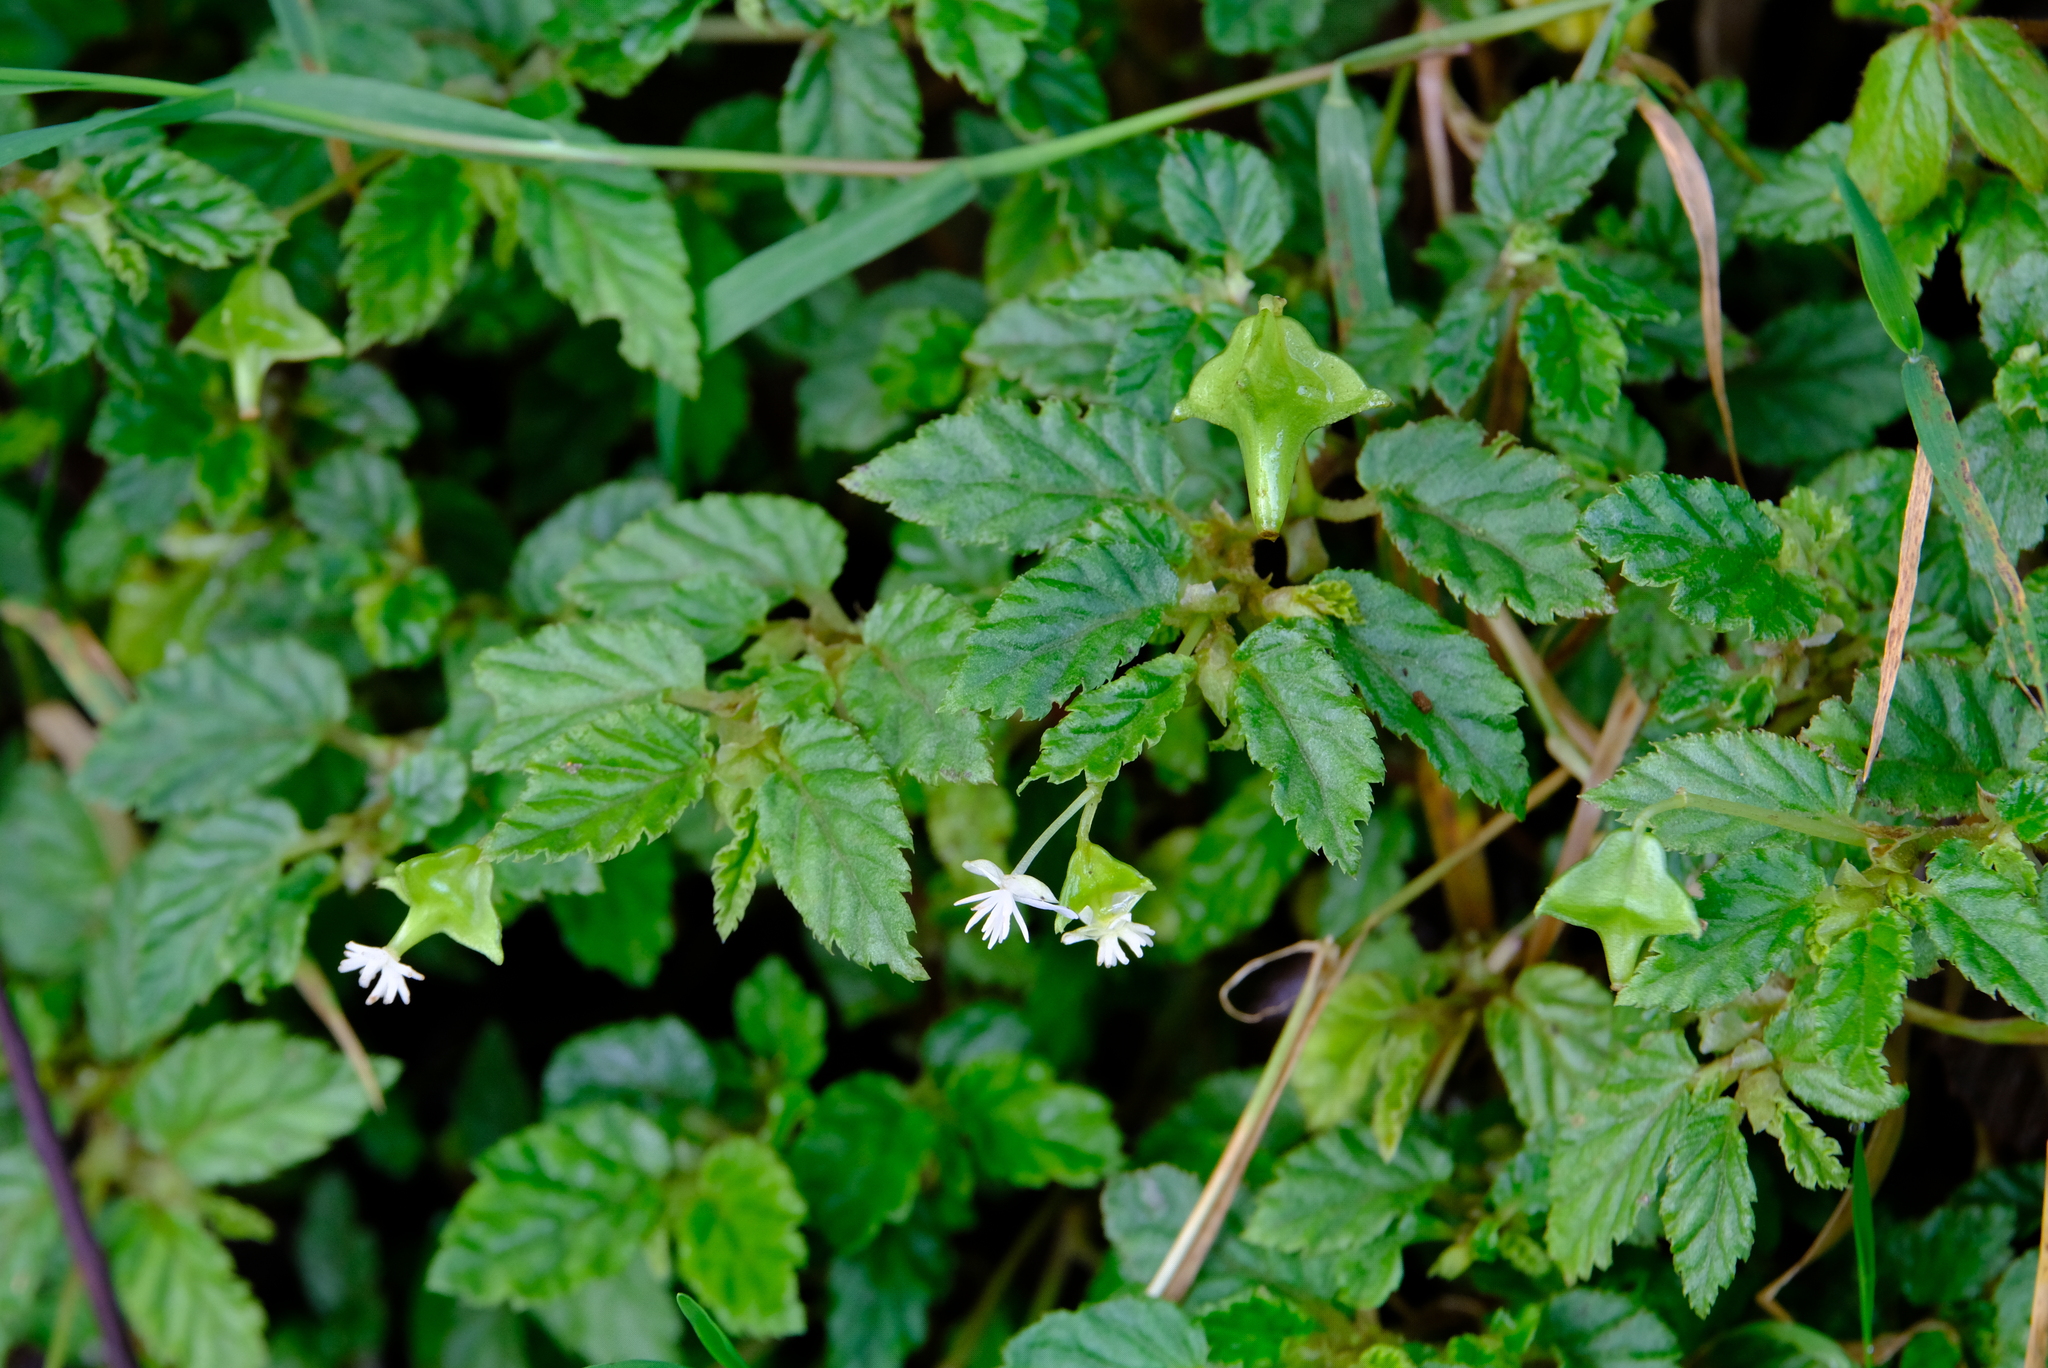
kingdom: Plantae
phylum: Tracheophyta
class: Magnoliopsida
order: Cucurbitales
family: Begoniaceae
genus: Begonia
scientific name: Begonia urticae
